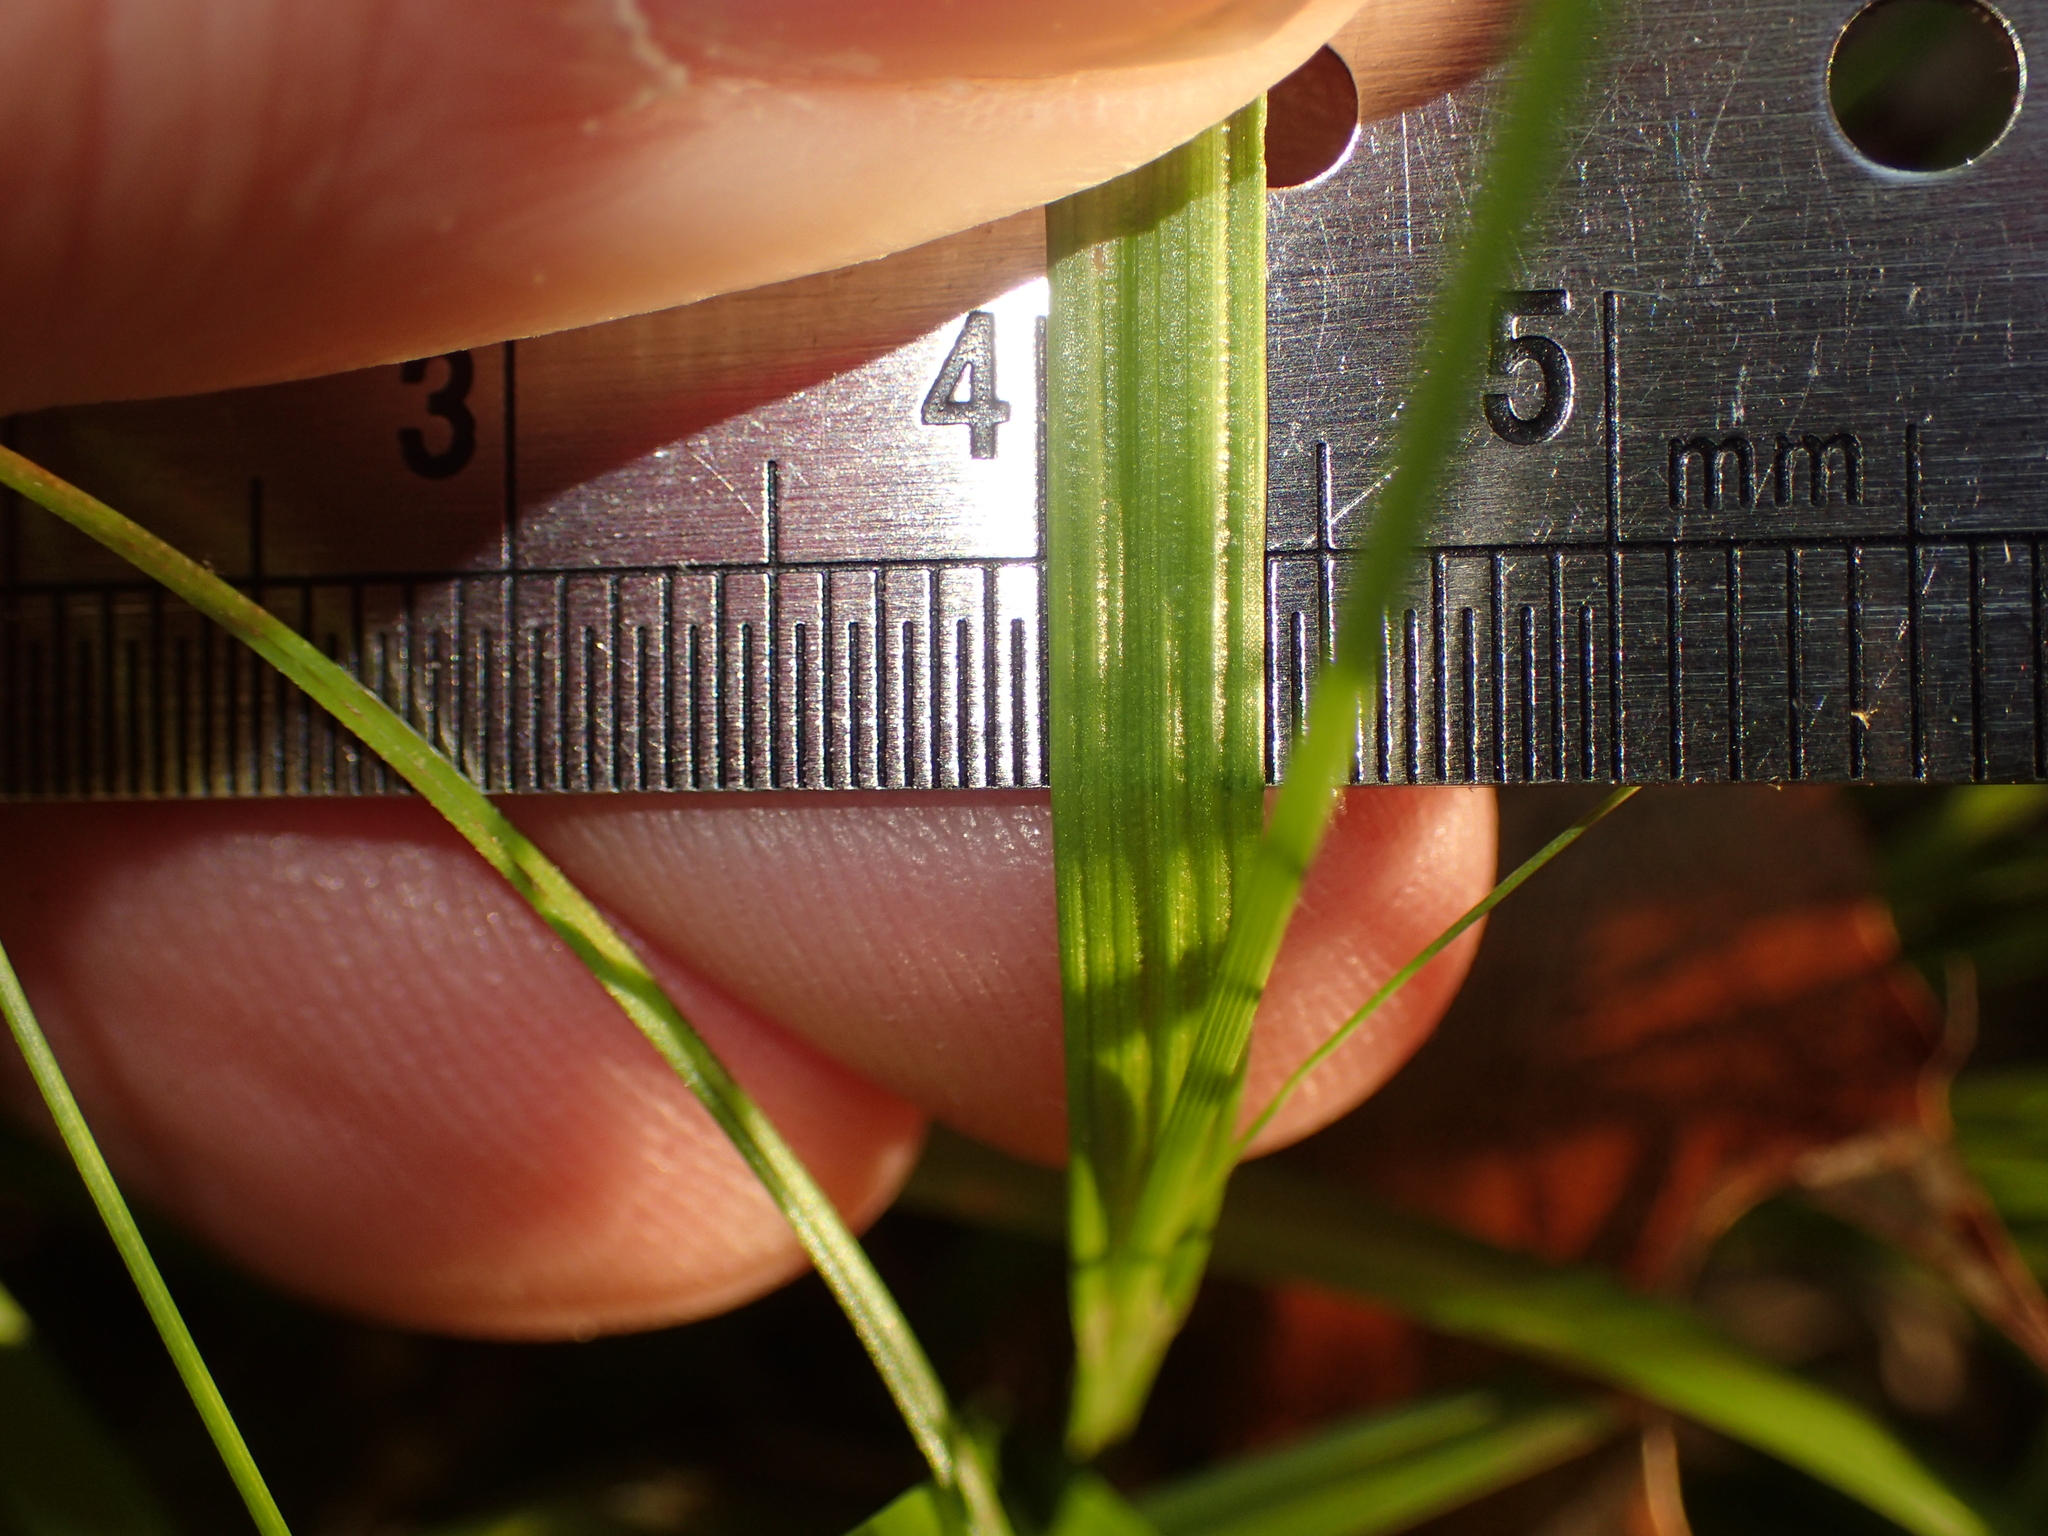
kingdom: Plantae
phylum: Tracheophyta
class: Liliopsida
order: Poales
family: Cyperaceae
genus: Carex
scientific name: Carex digitalis
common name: Slender wood sedge
